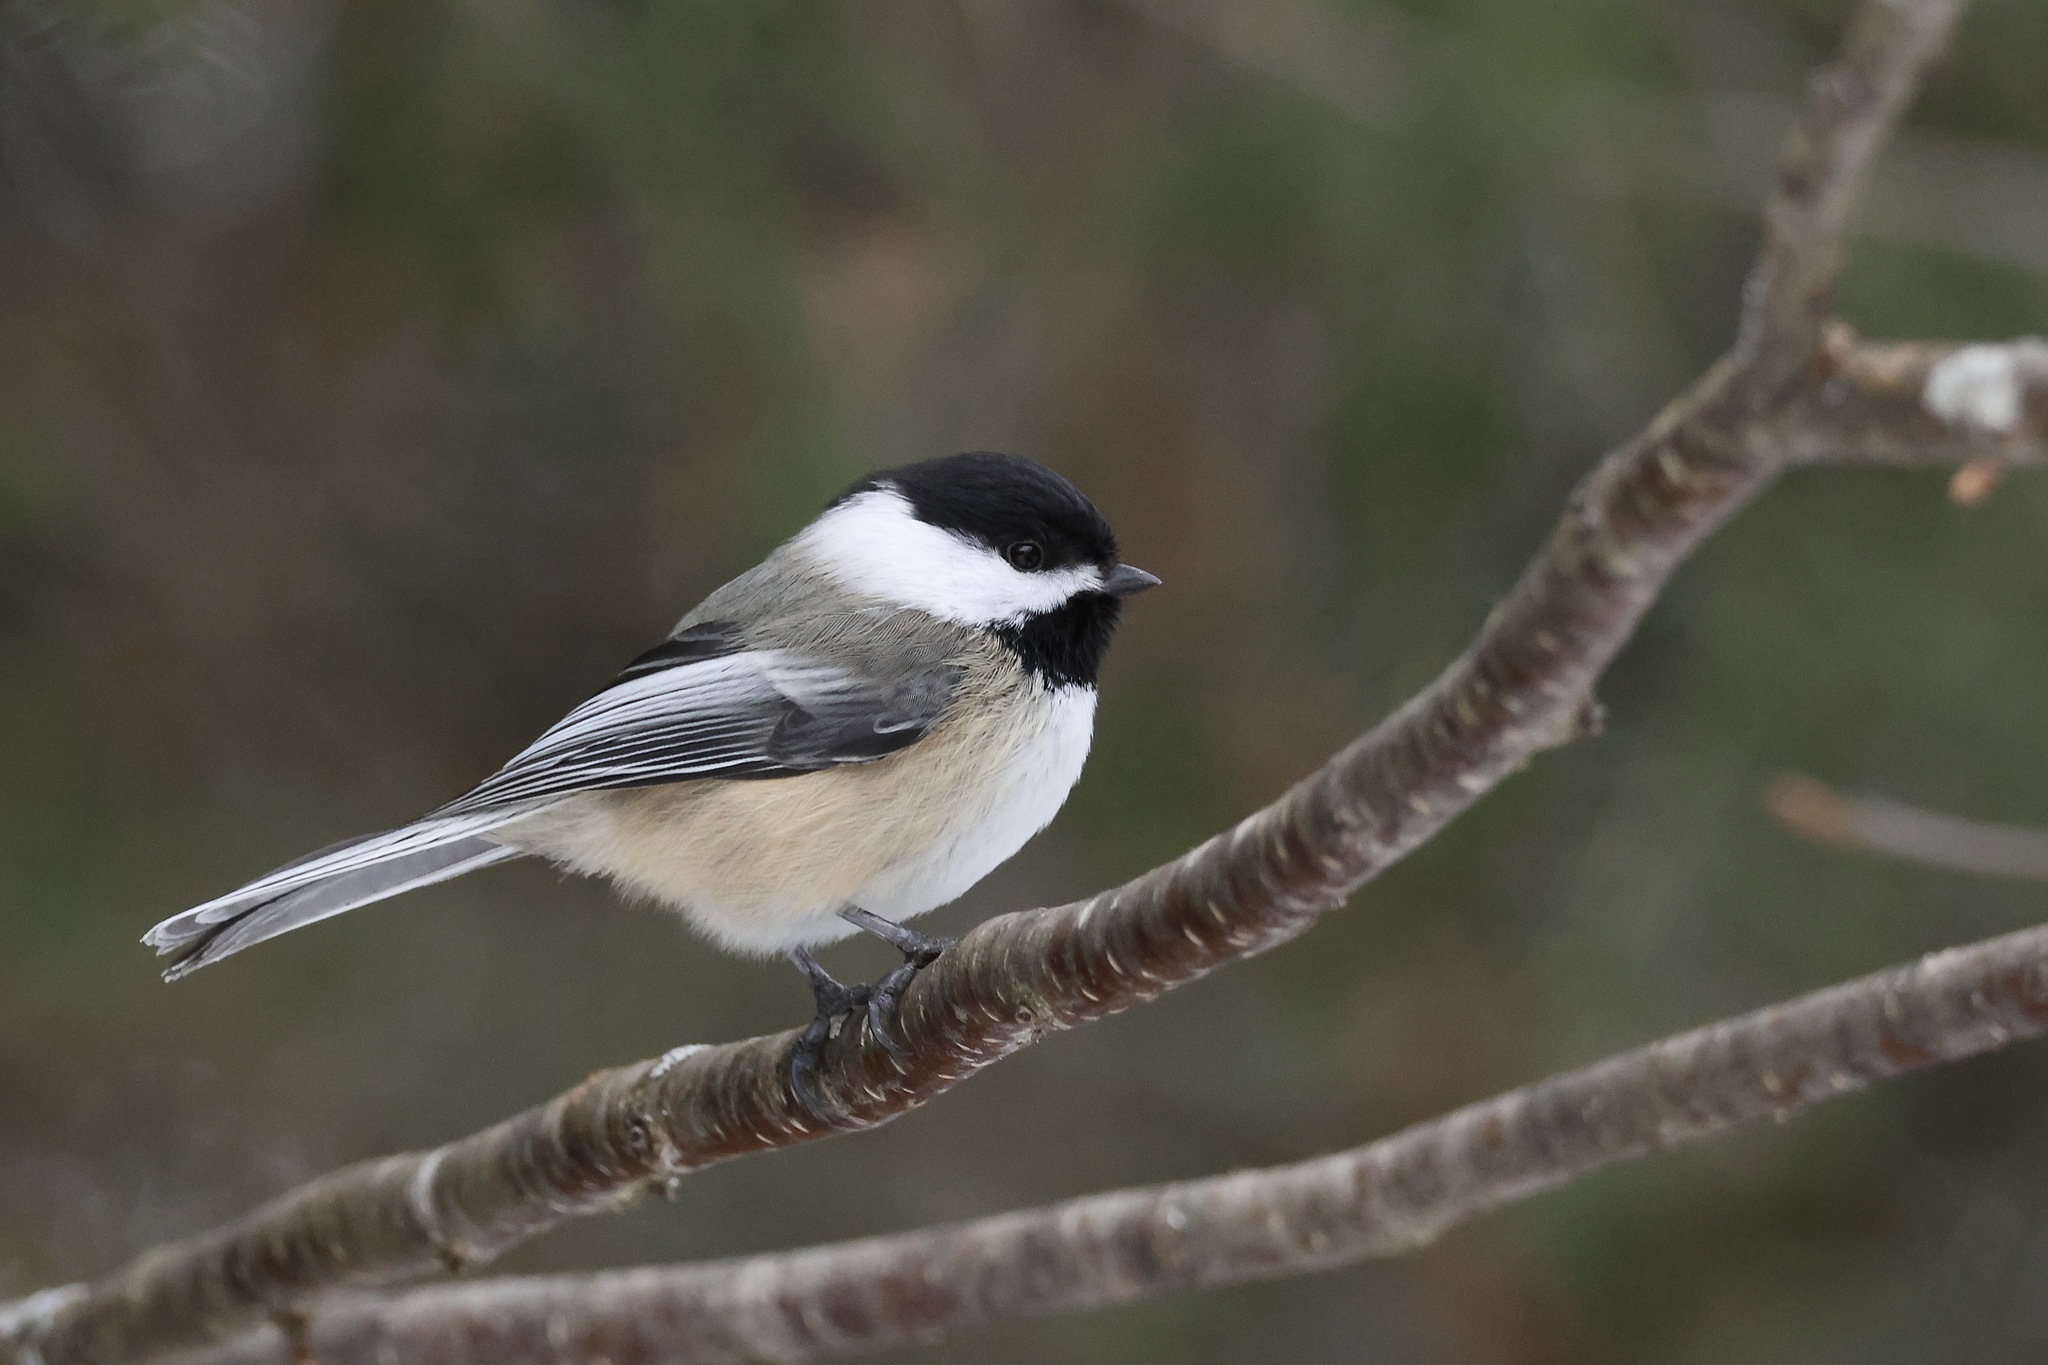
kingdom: Animalia
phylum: Chordata
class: Aves
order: Passeriformes
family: Paridae
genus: Poecile
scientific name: Poecile atricapillus
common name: Black-capped chickadee
